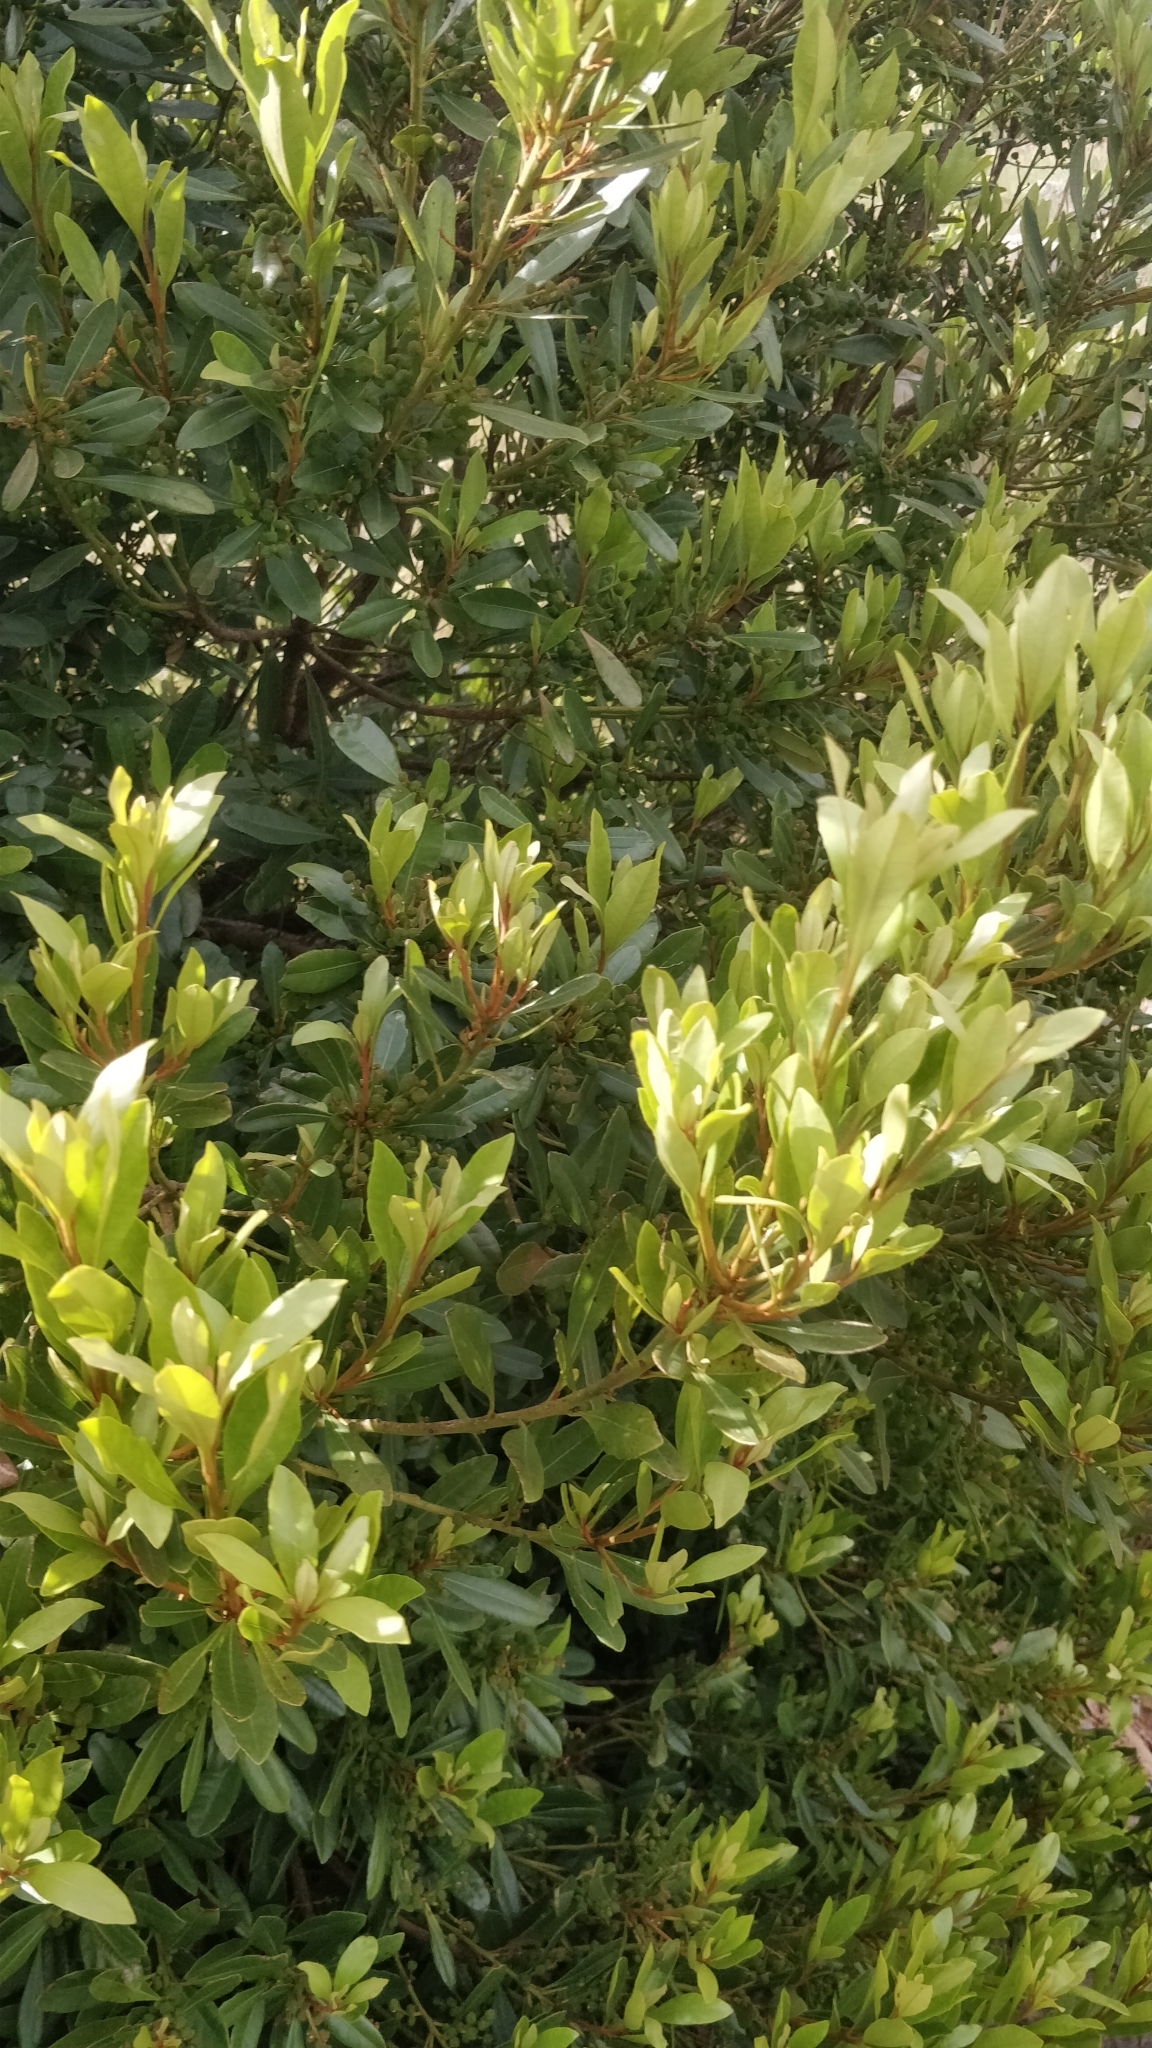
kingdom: Plantae
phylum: Tracheophyta
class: Magnoliopsida
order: Fagales
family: Myricaceae
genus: Morella
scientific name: Morella faya
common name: Firetree
